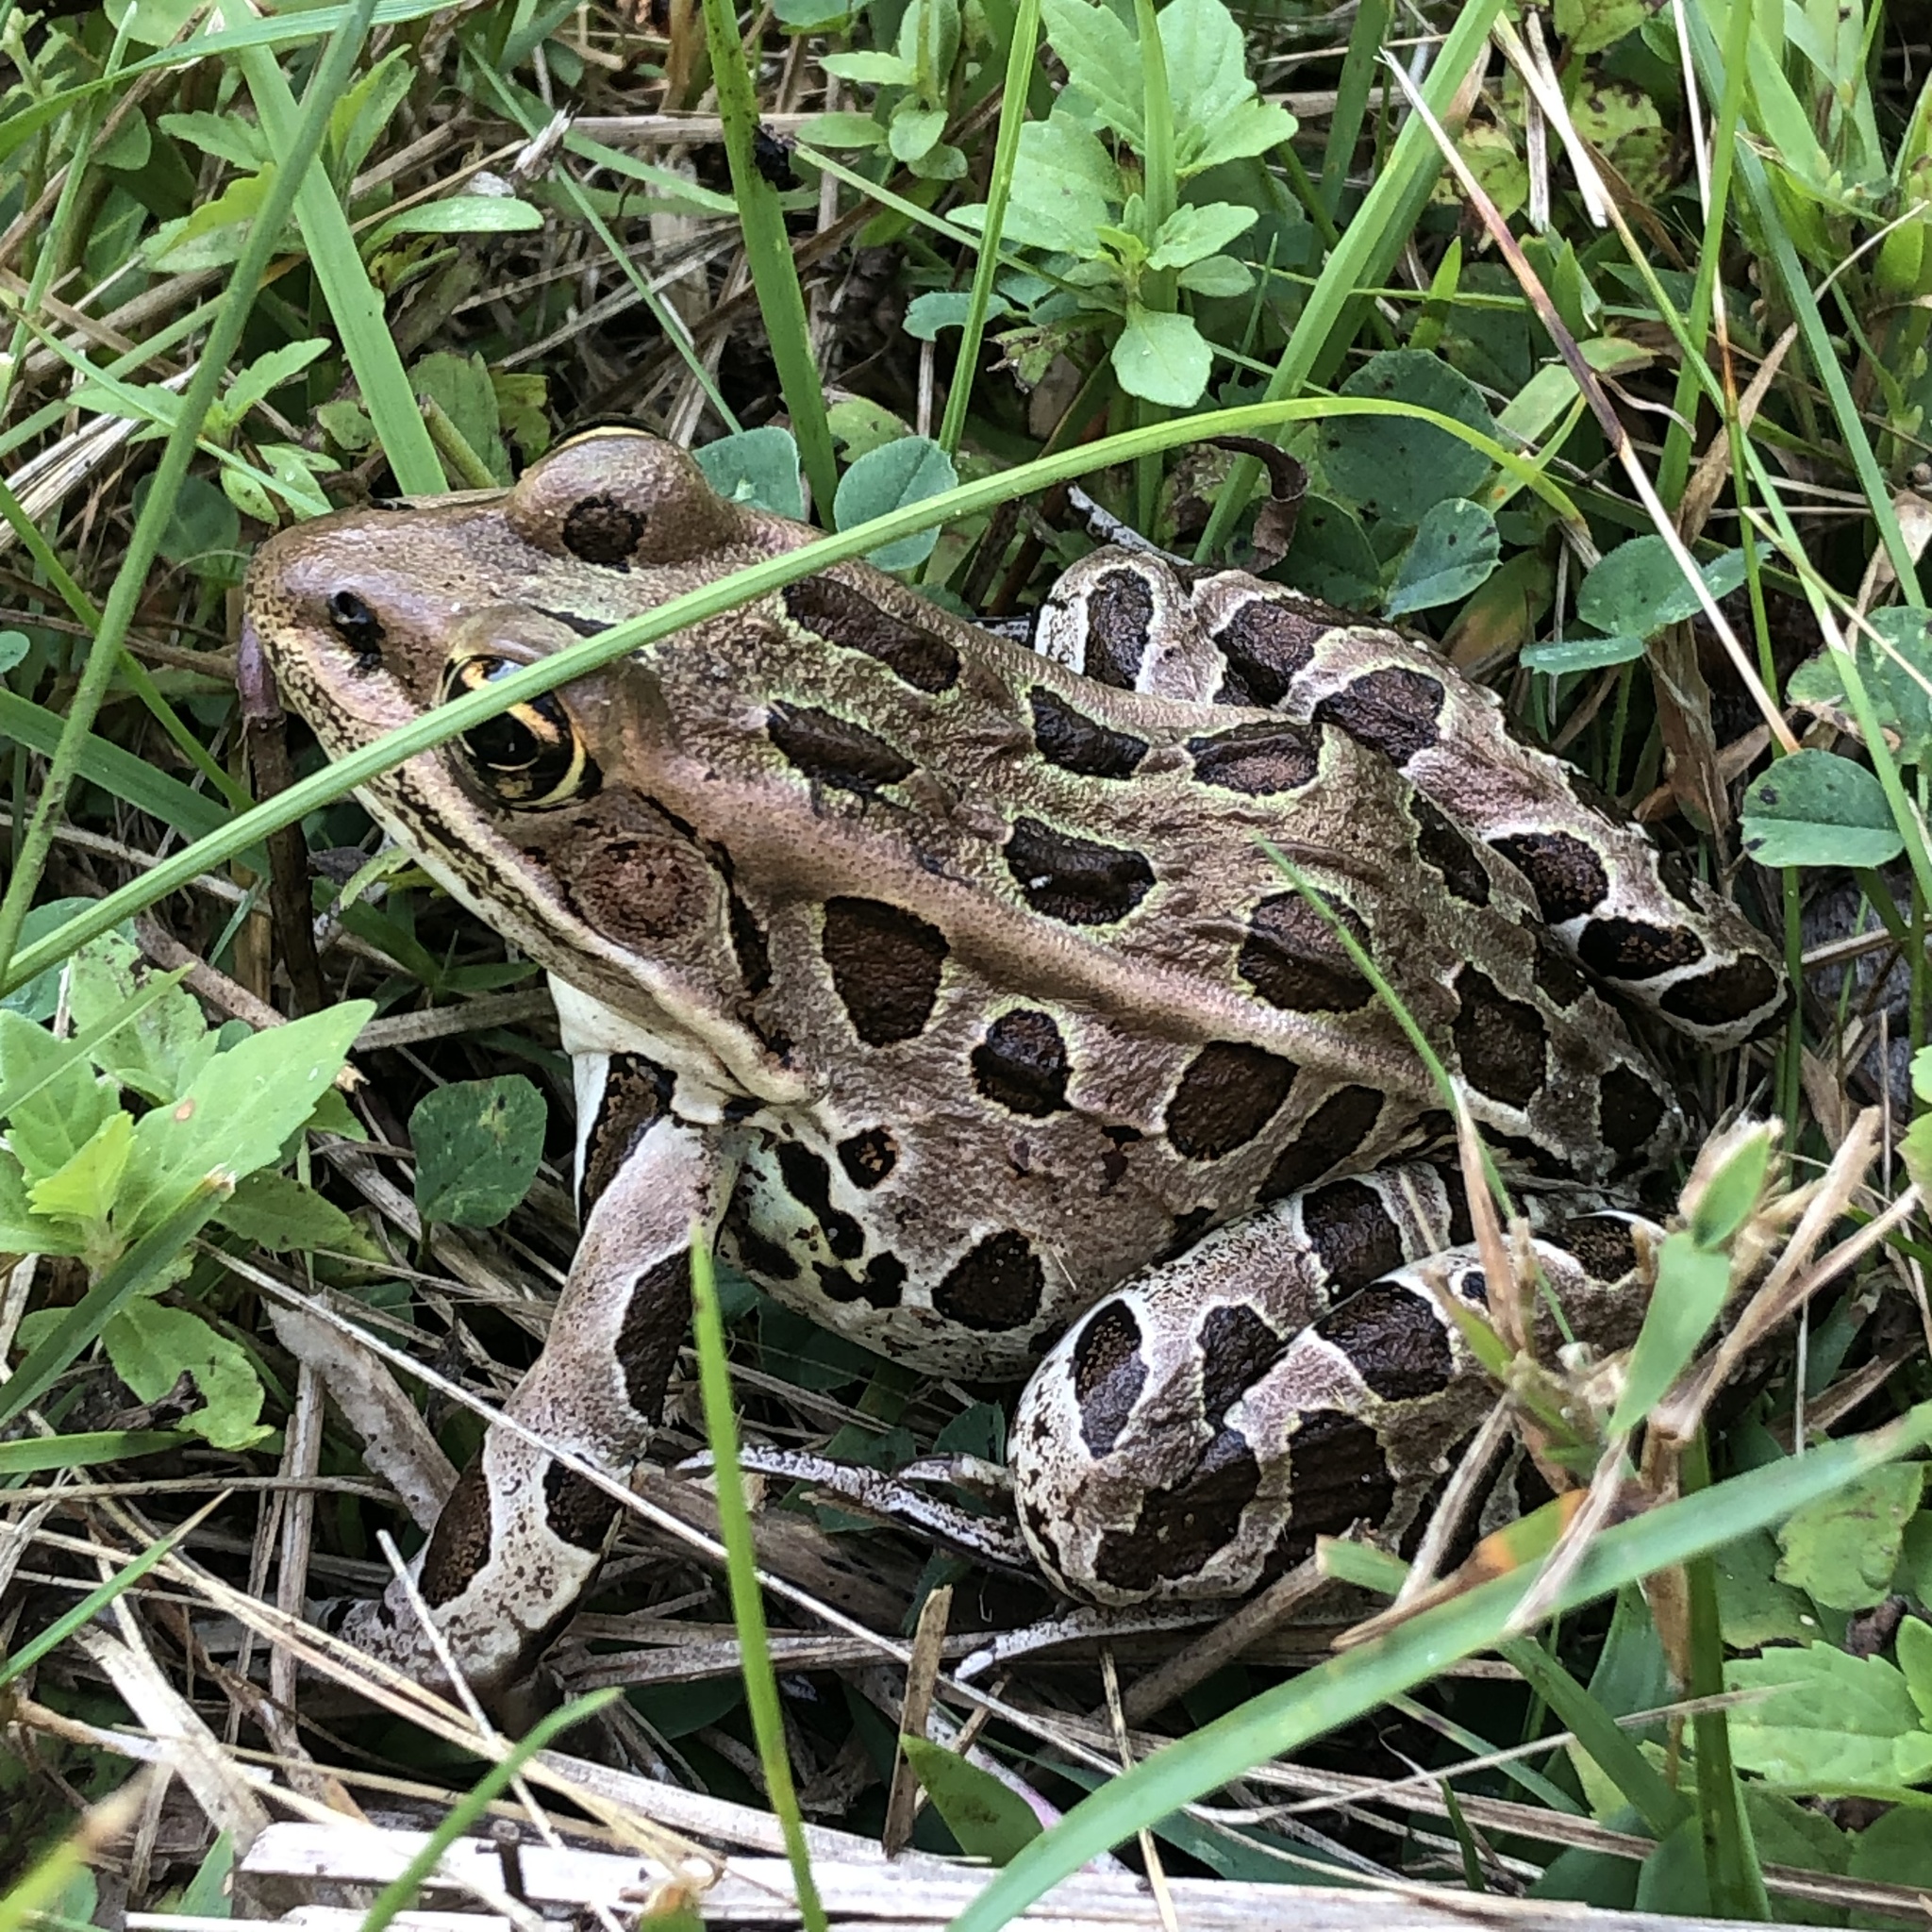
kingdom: Animalia
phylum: Chordata
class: Amphibia
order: Anura
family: Ranidae
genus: Lithobates
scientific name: Lithobates pipiens
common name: Northern leopard frog
